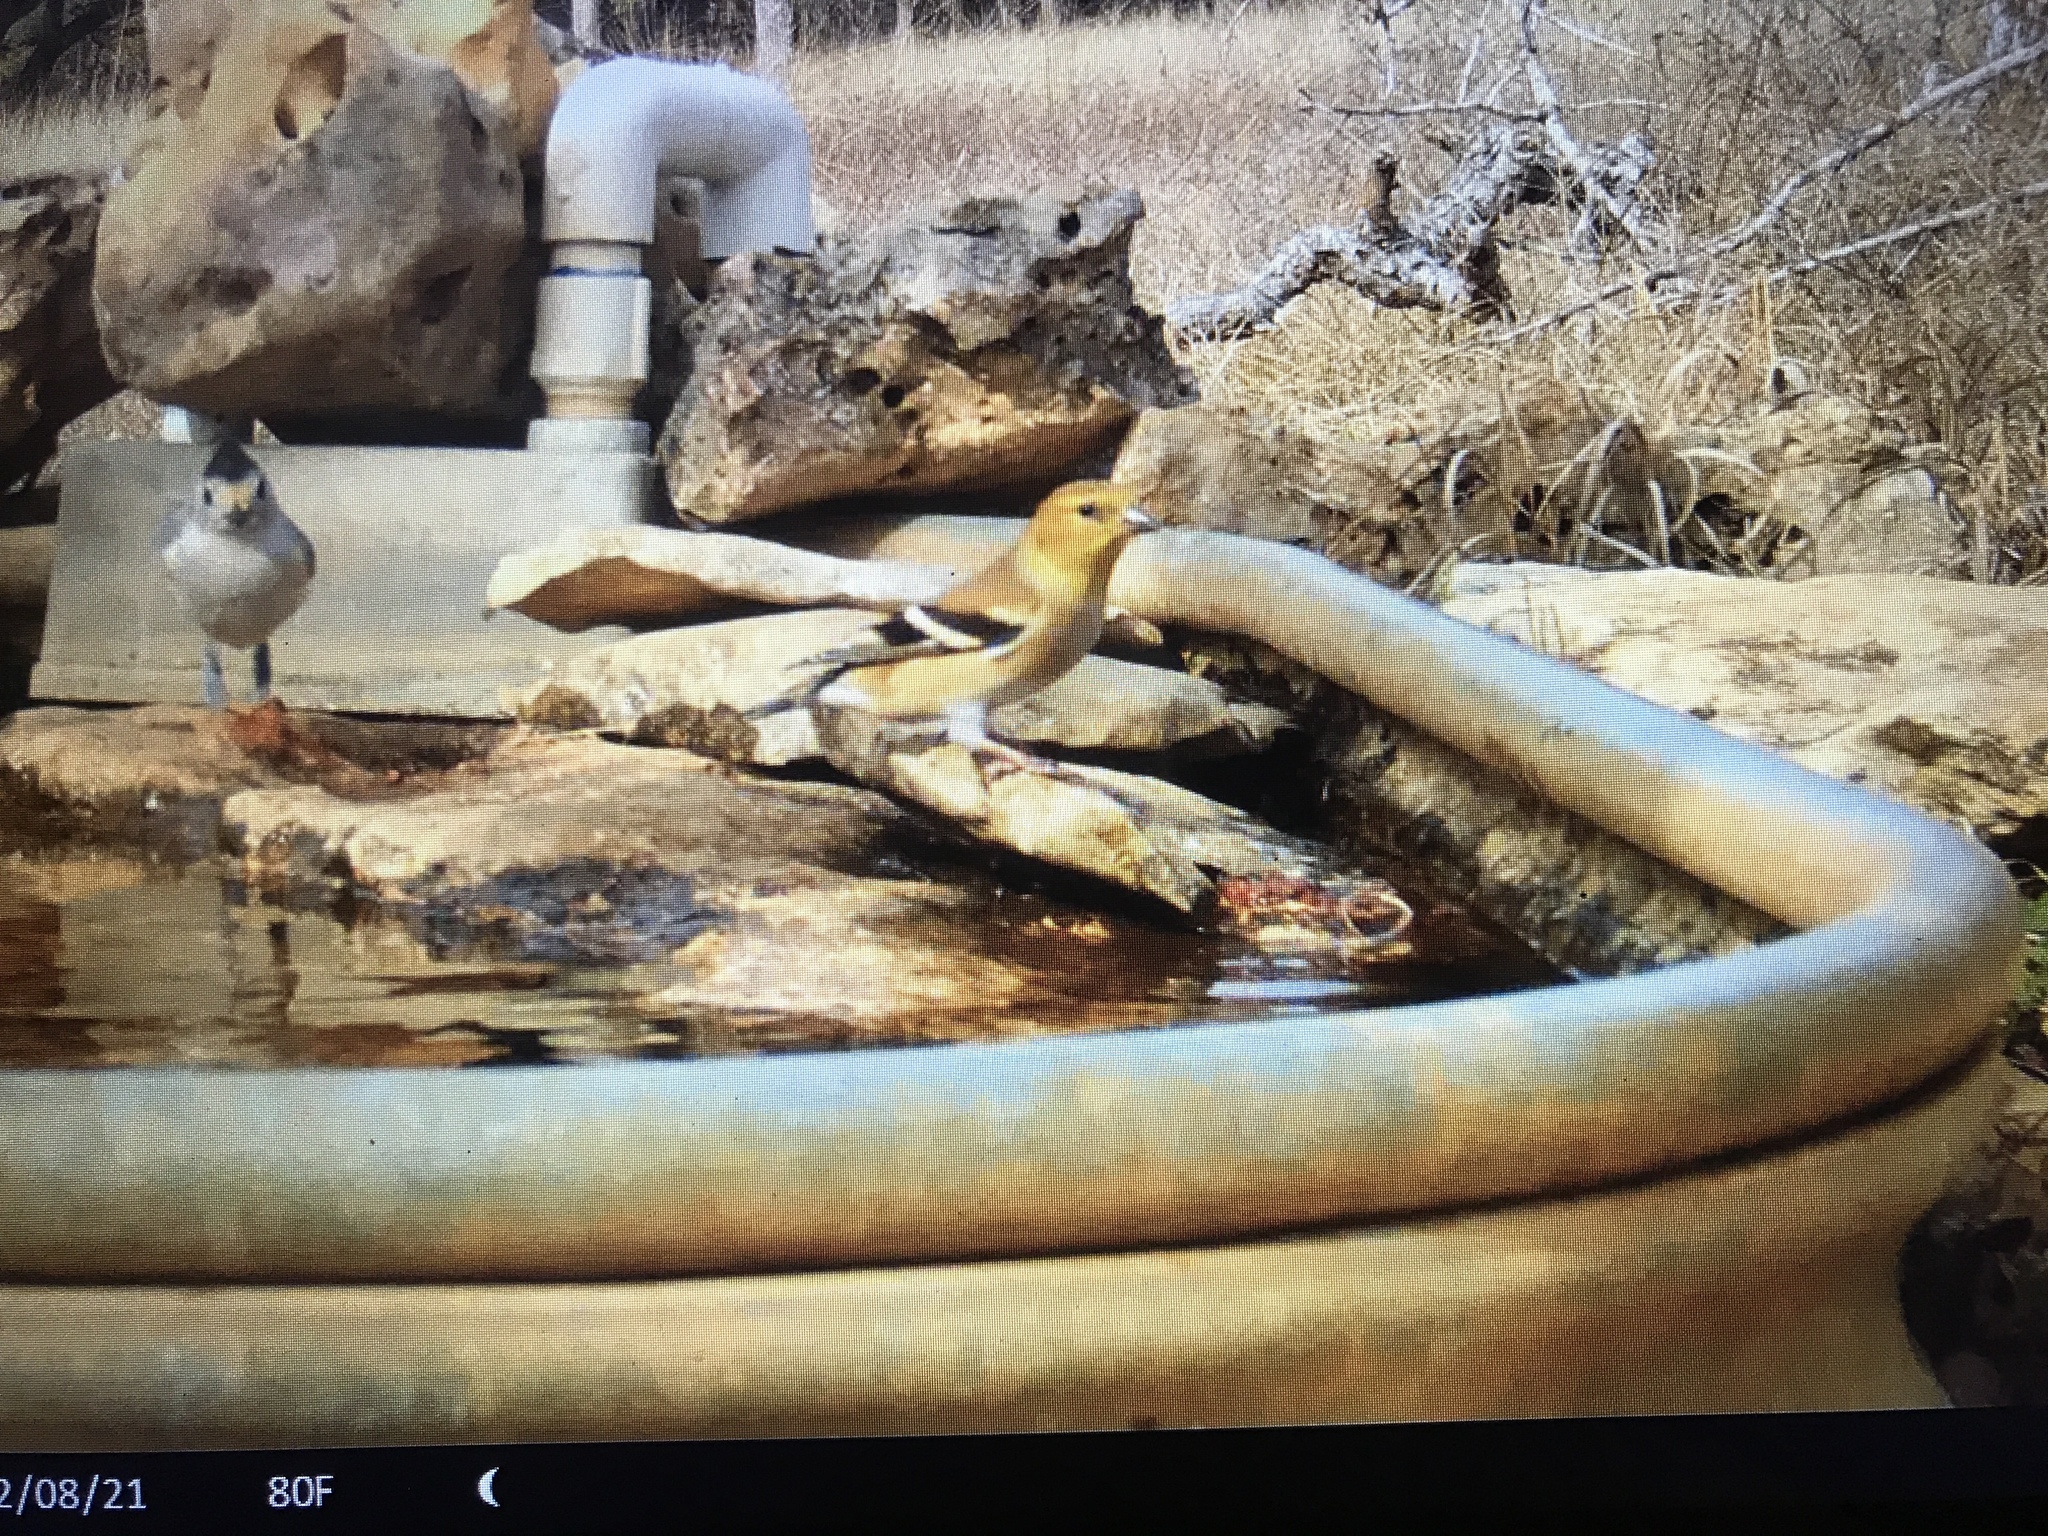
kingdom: Animalia
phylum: Chordata
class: Aves
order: Passeriformes
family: Fringillidae
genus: Spinus
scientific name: Spinus tristis
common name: American goldfinch
